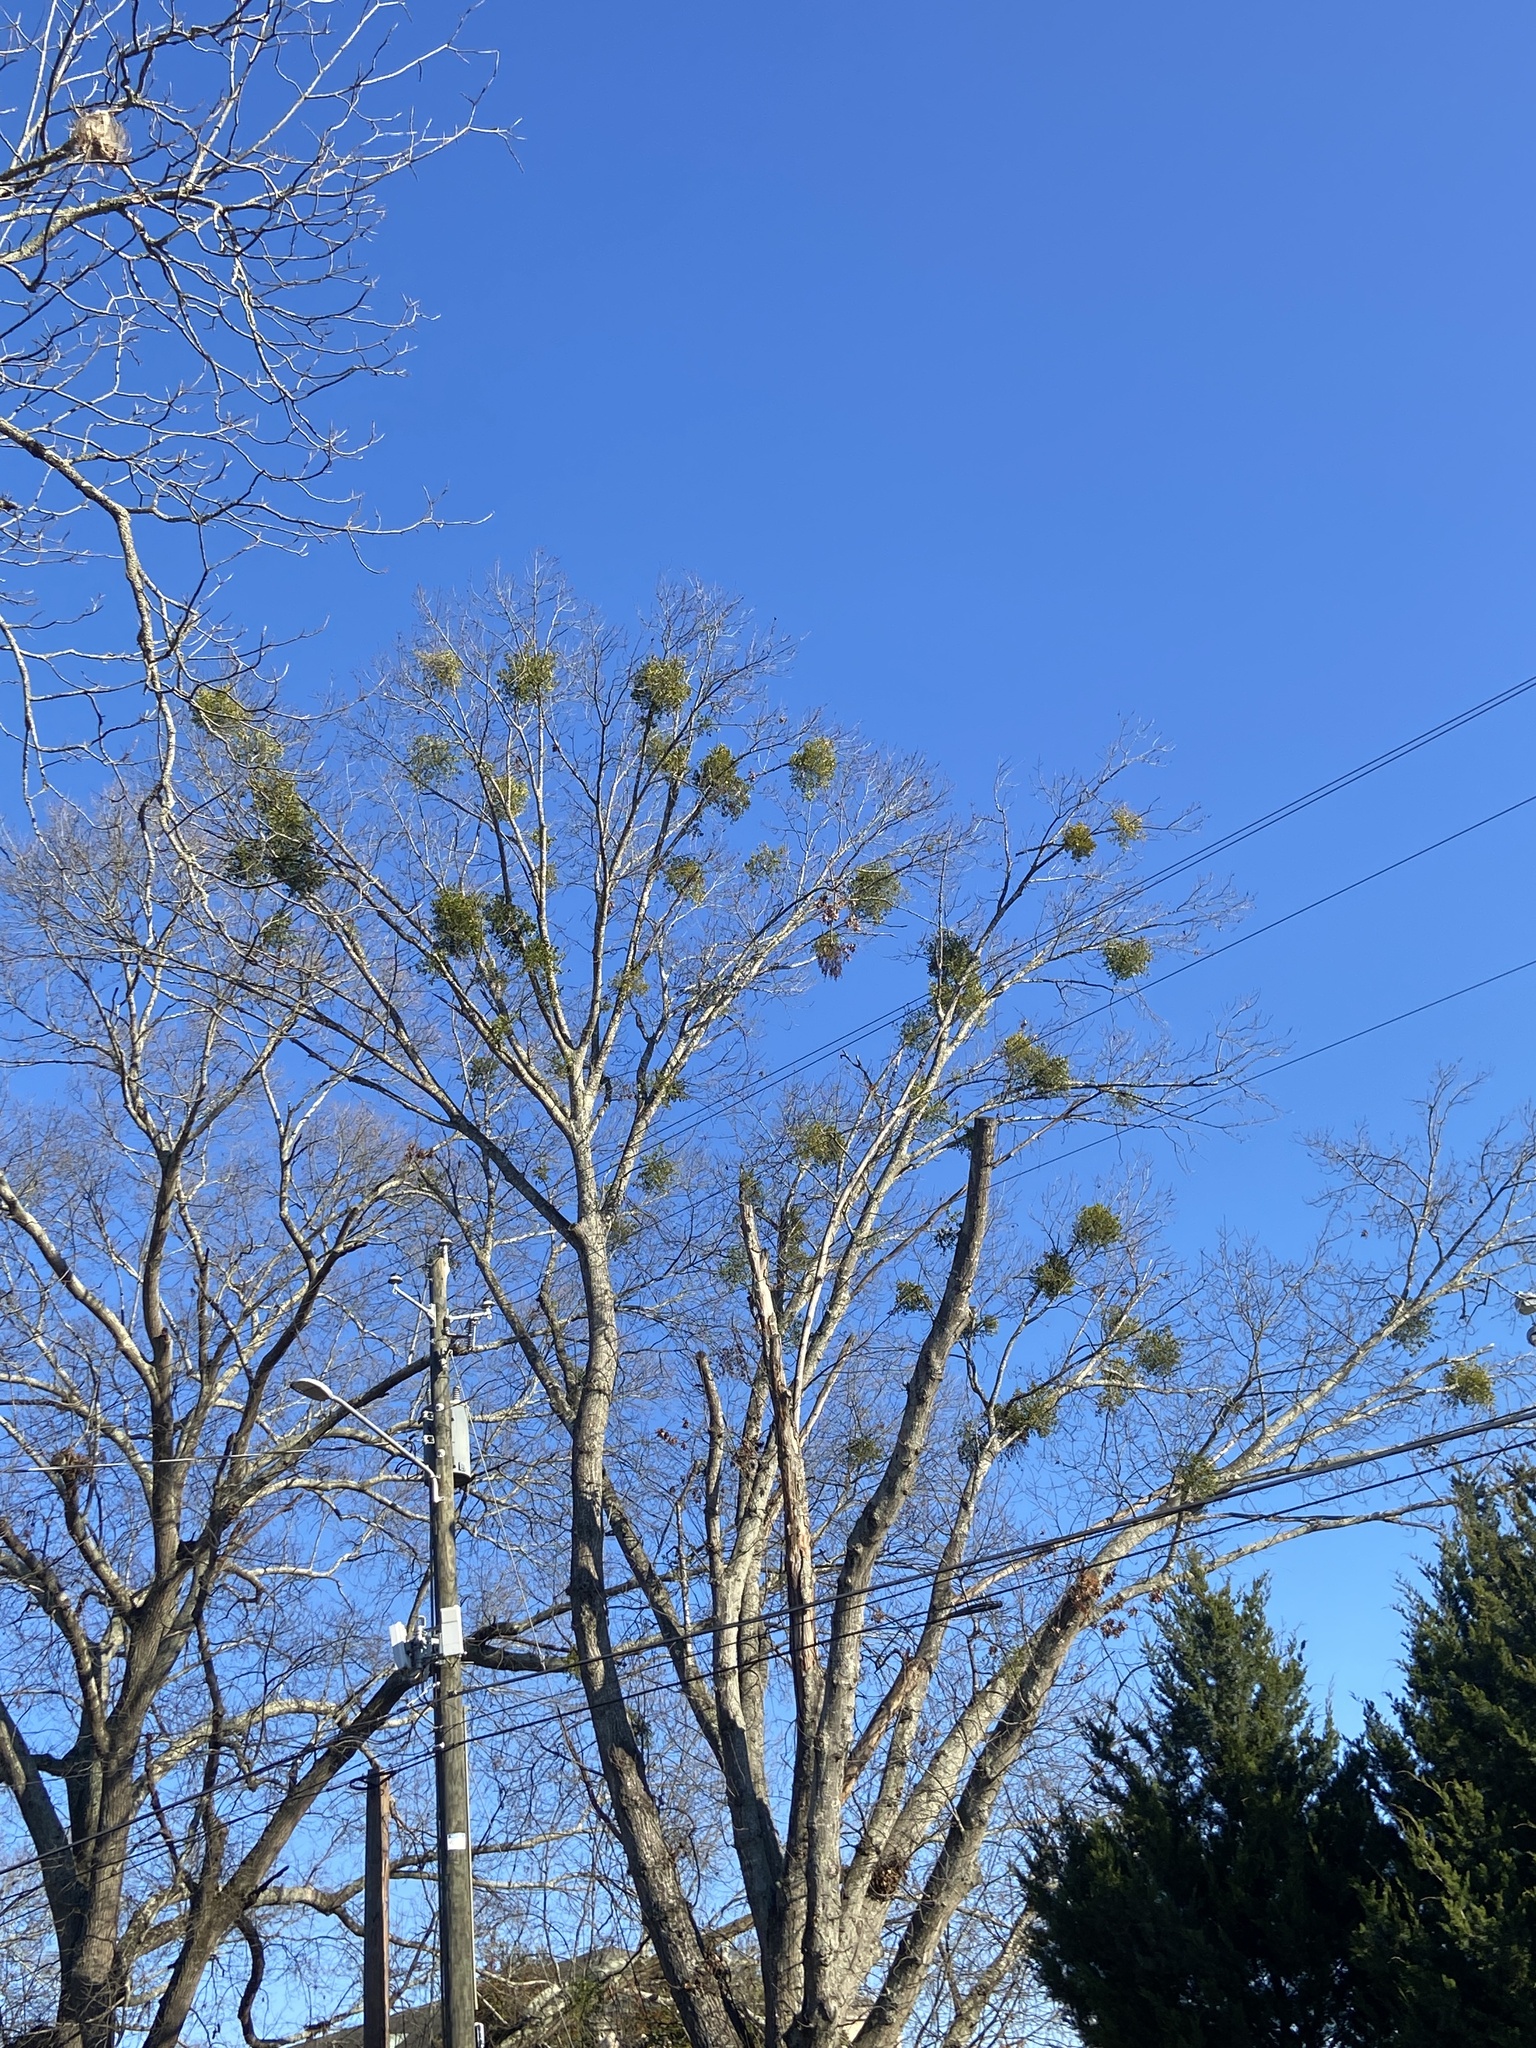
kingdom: Plantae
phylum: Tracheophyta
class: Magnoliopsida
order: Santalales
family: Viscaceae
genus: Phoradendron
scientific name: Phoradendron leucarpum
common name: Pacific mistletoe
